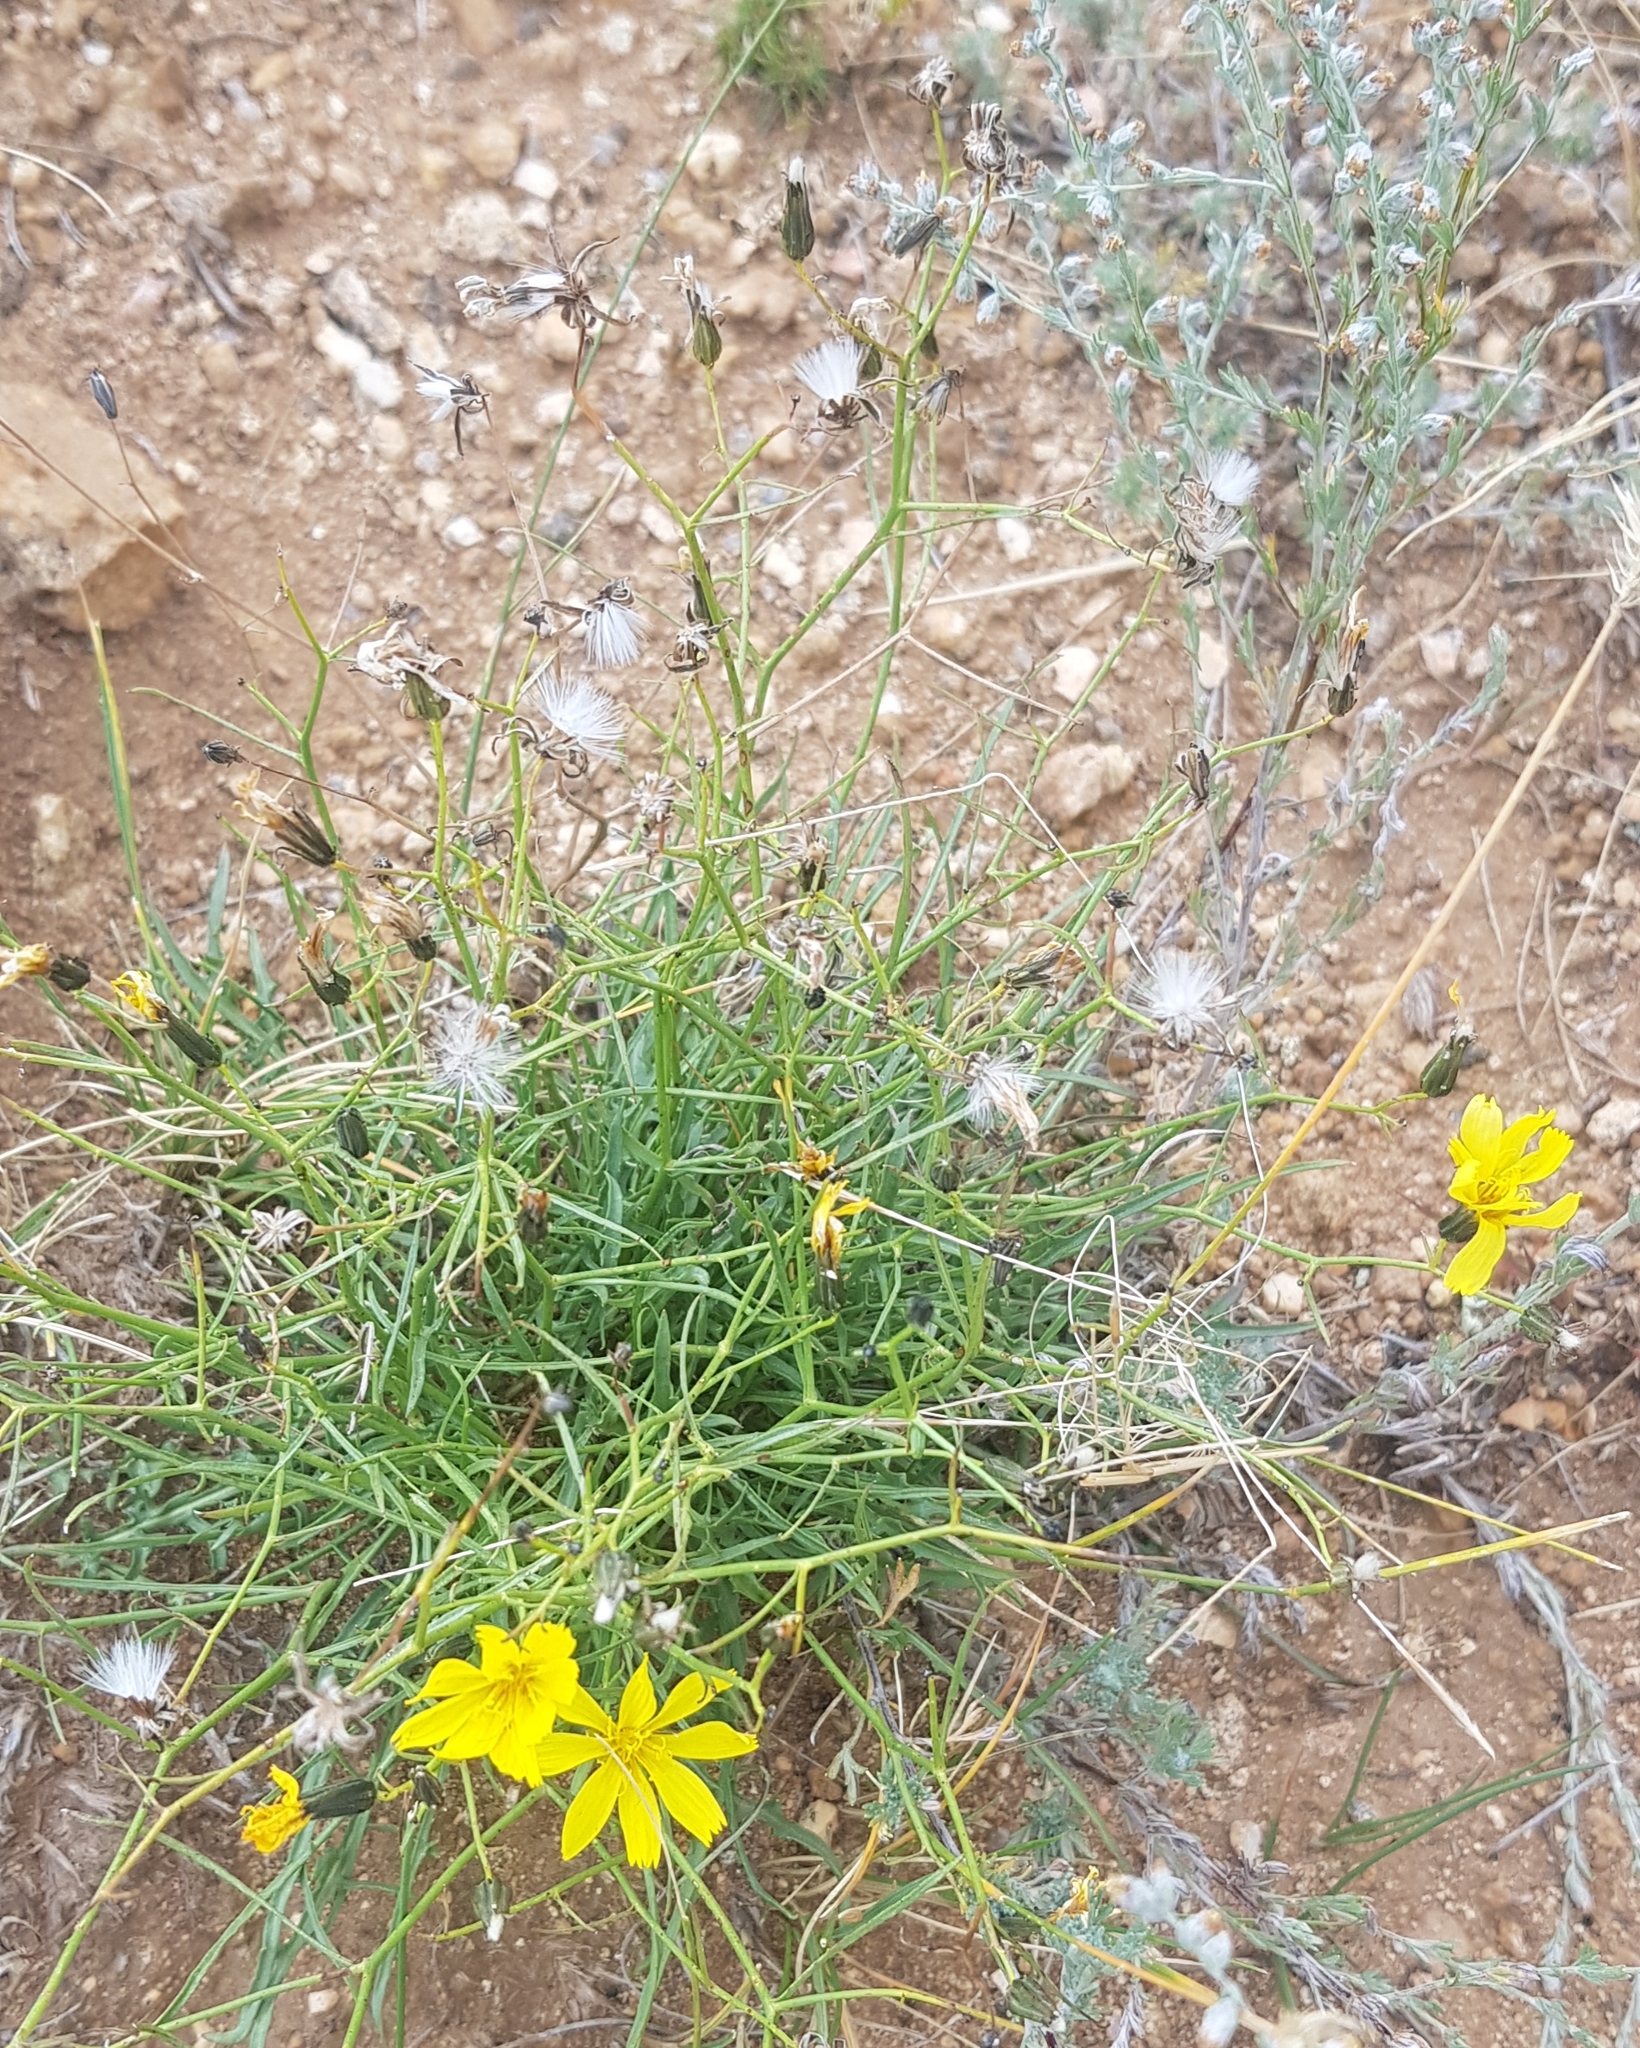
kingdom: Plantae
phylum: Tracheophyta
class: Magnoliopsida
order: Asterales
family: Asteraceae
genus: Crepidiastrum
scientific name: Crepidiastrum tenuifolium
